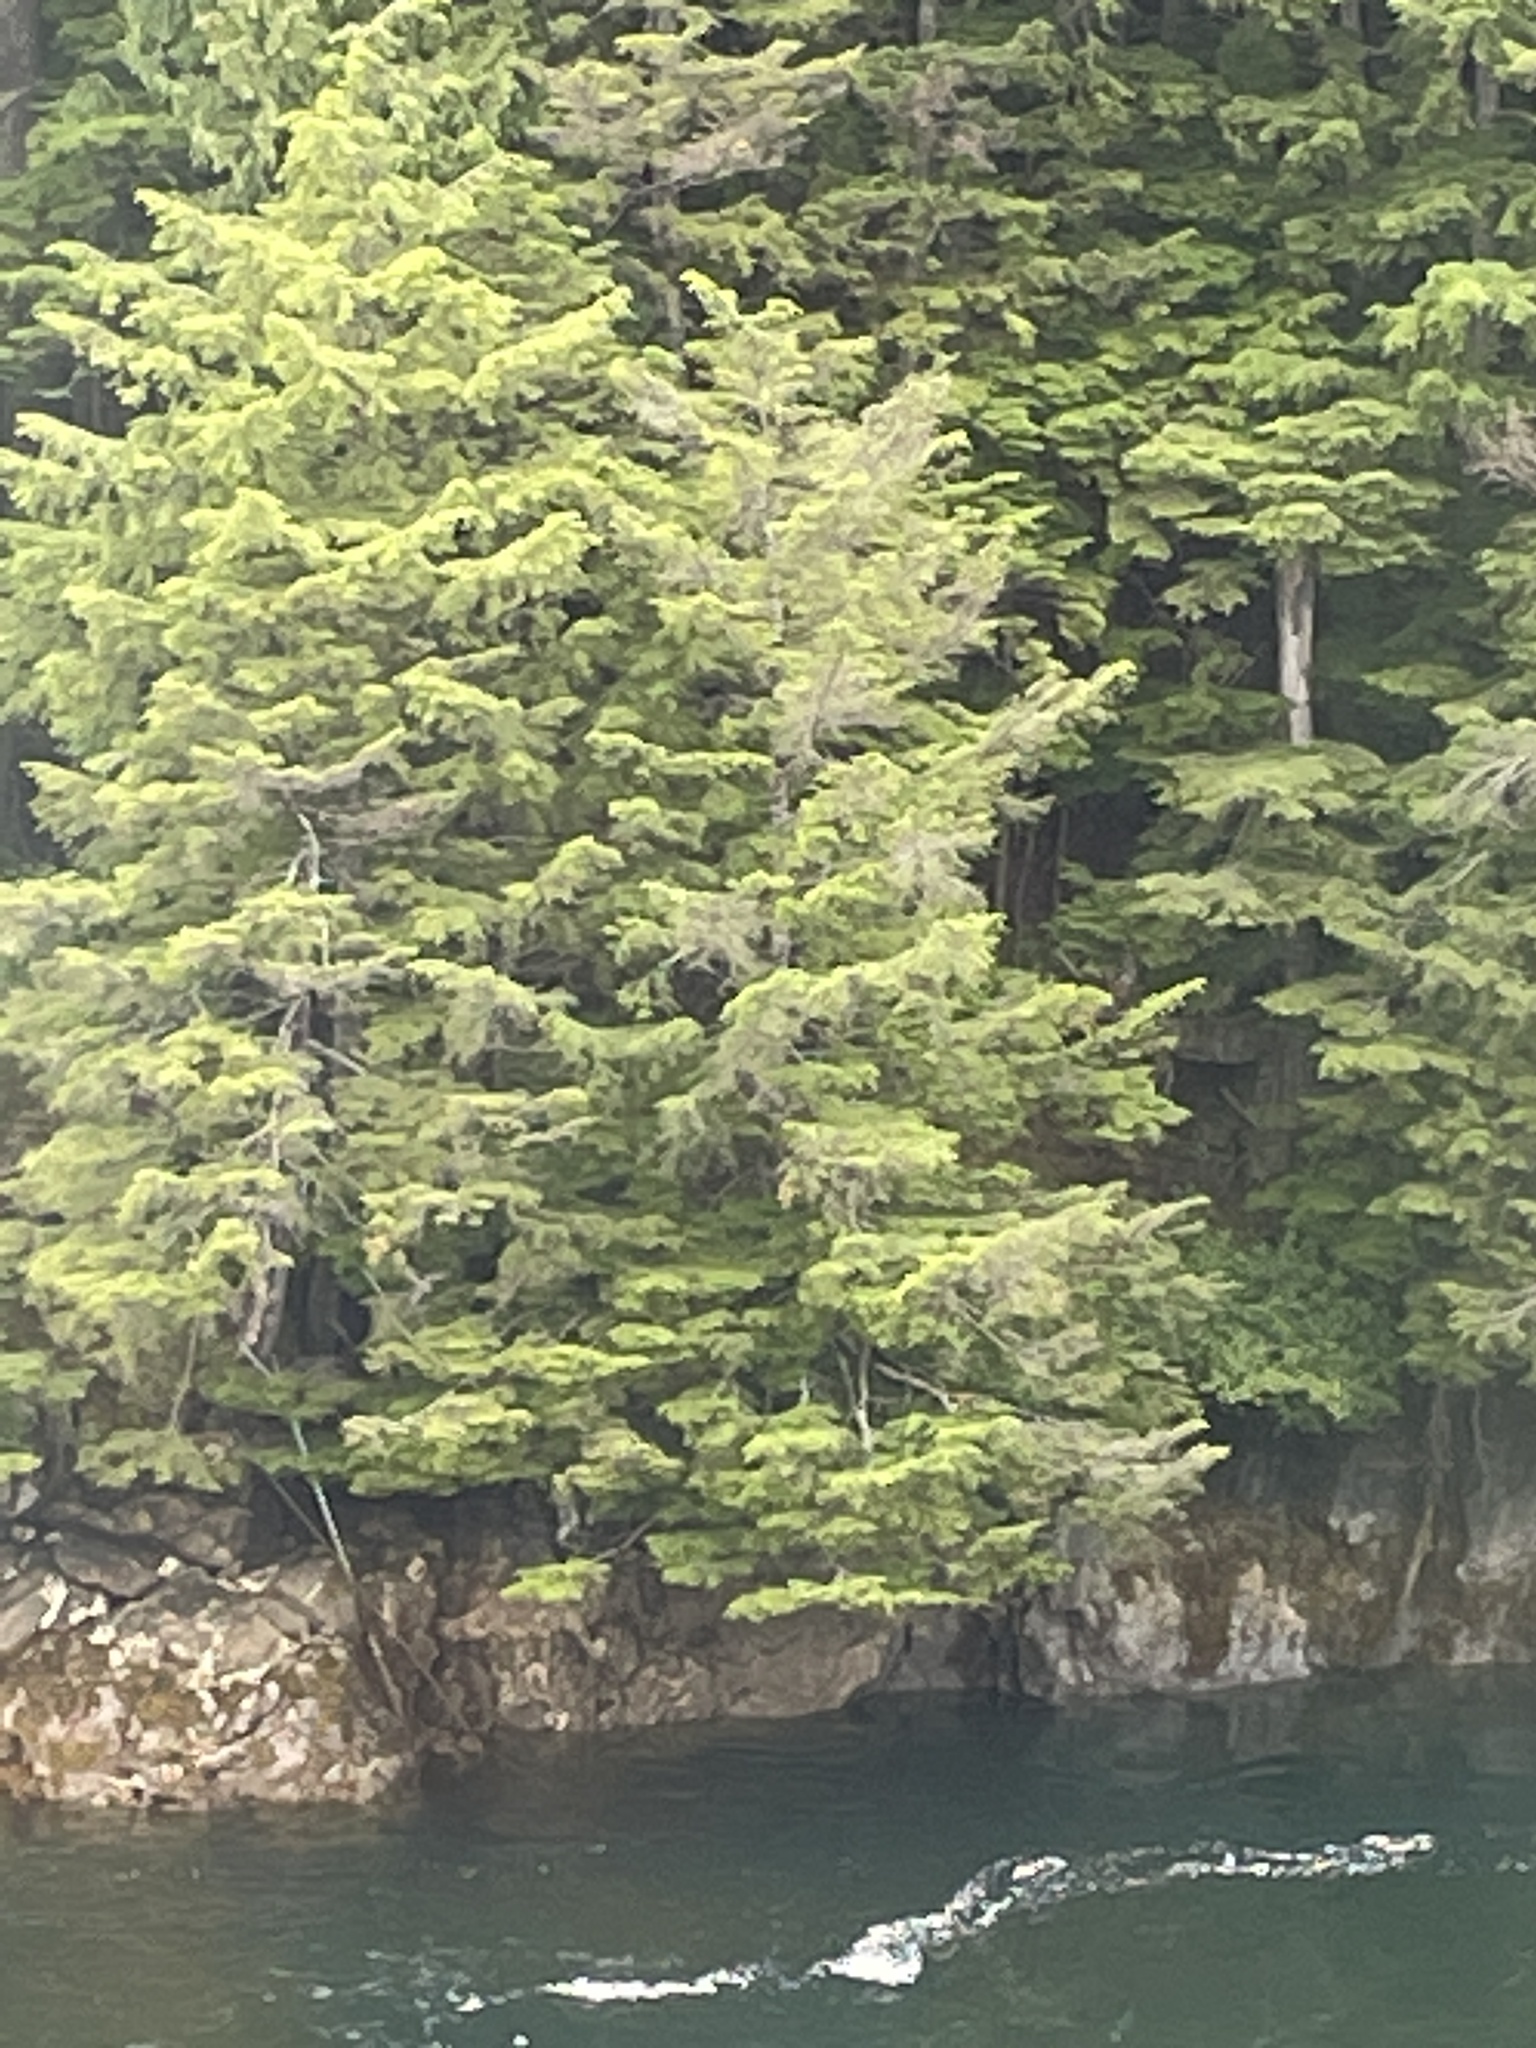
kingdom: Plantae
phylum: Tracheophyta
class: Pinopsida
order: Pinales
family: Pinaceae
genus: Picea
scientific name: Picea sitchensis
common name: Sitka spruce
